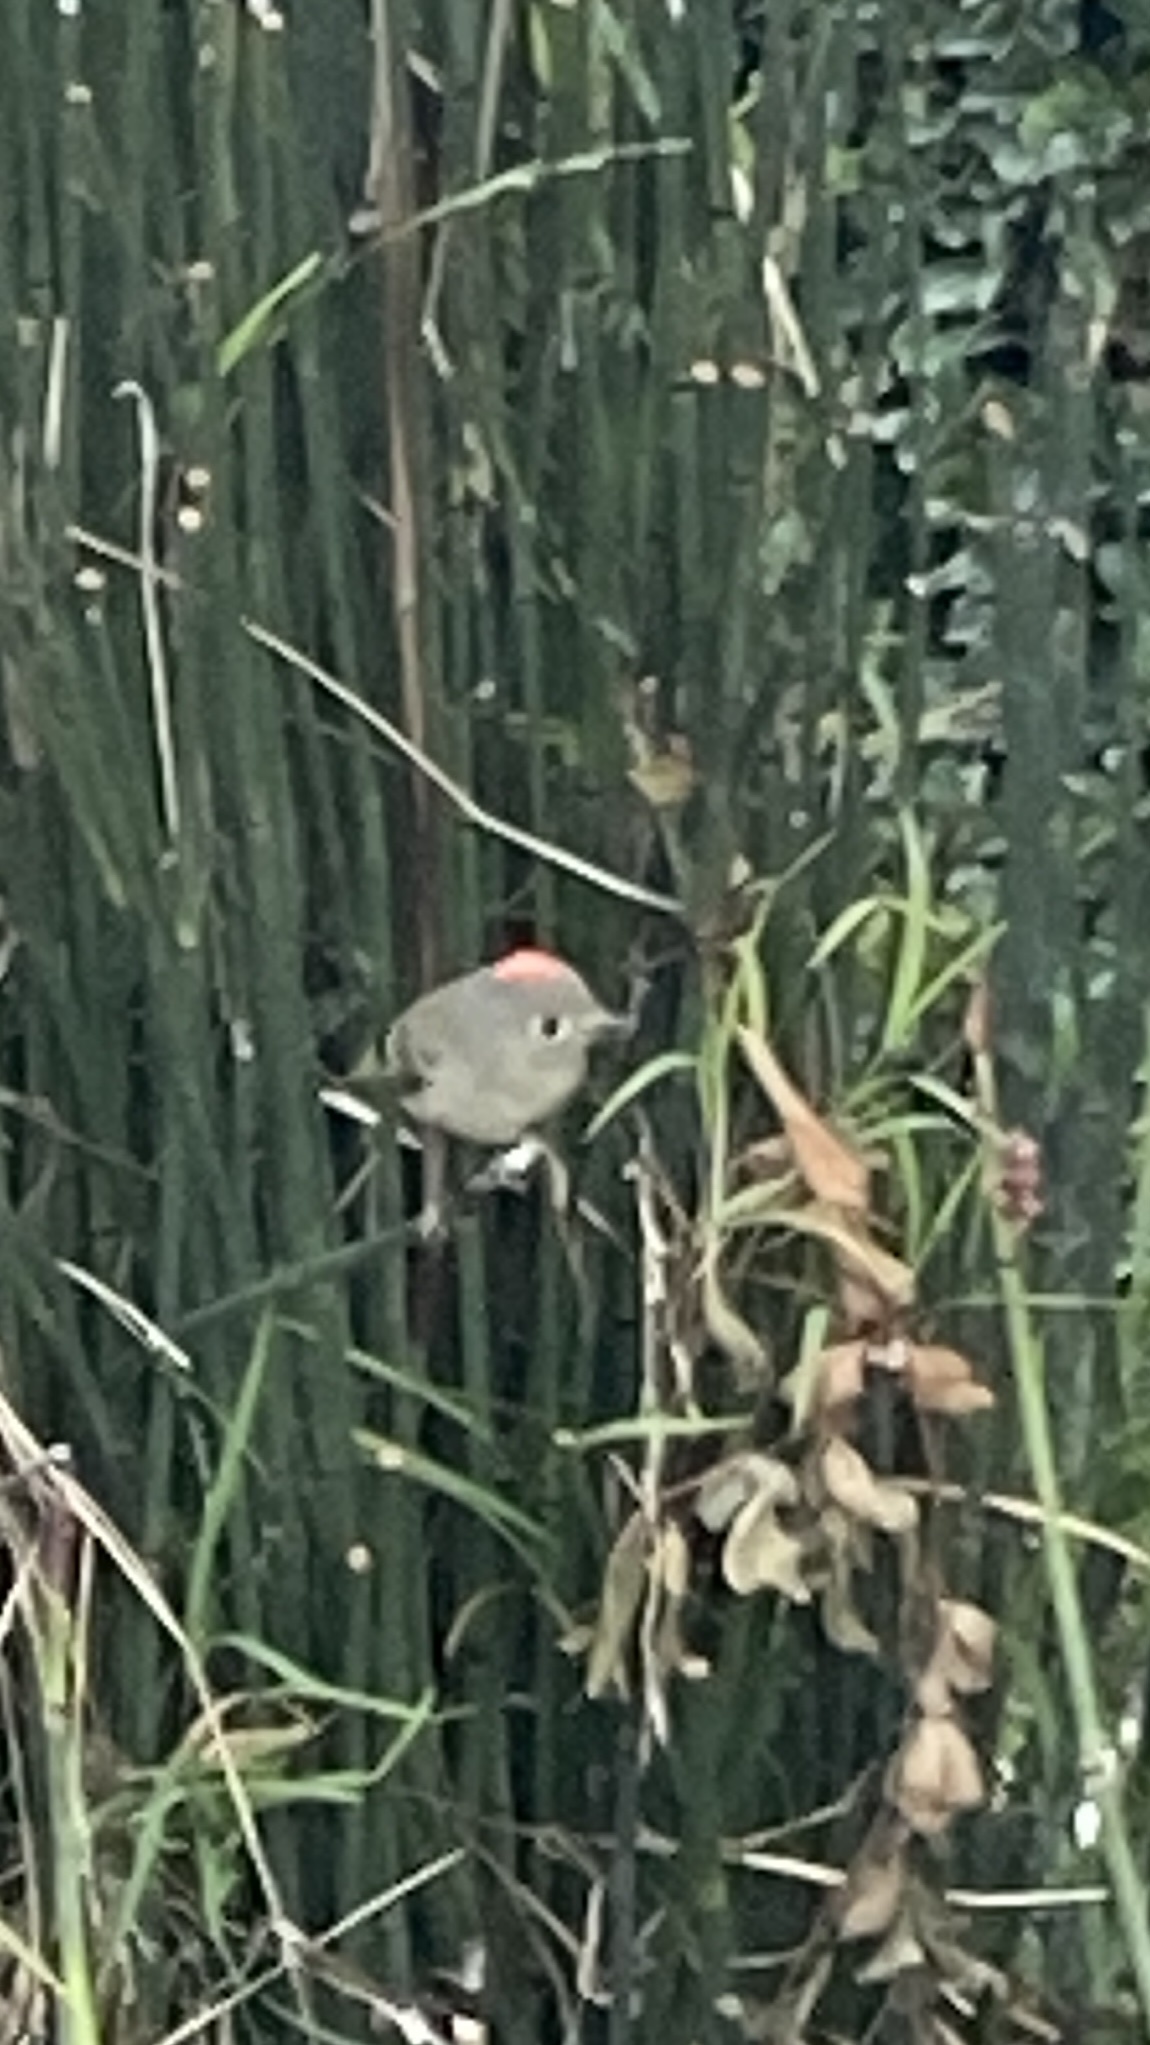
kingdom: Animalia
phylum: Chordata
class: Aves
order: Passeriformes
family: Regulidae
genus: Regulus
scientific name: Regulus calendula
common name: Ruby-crowned kinglet
